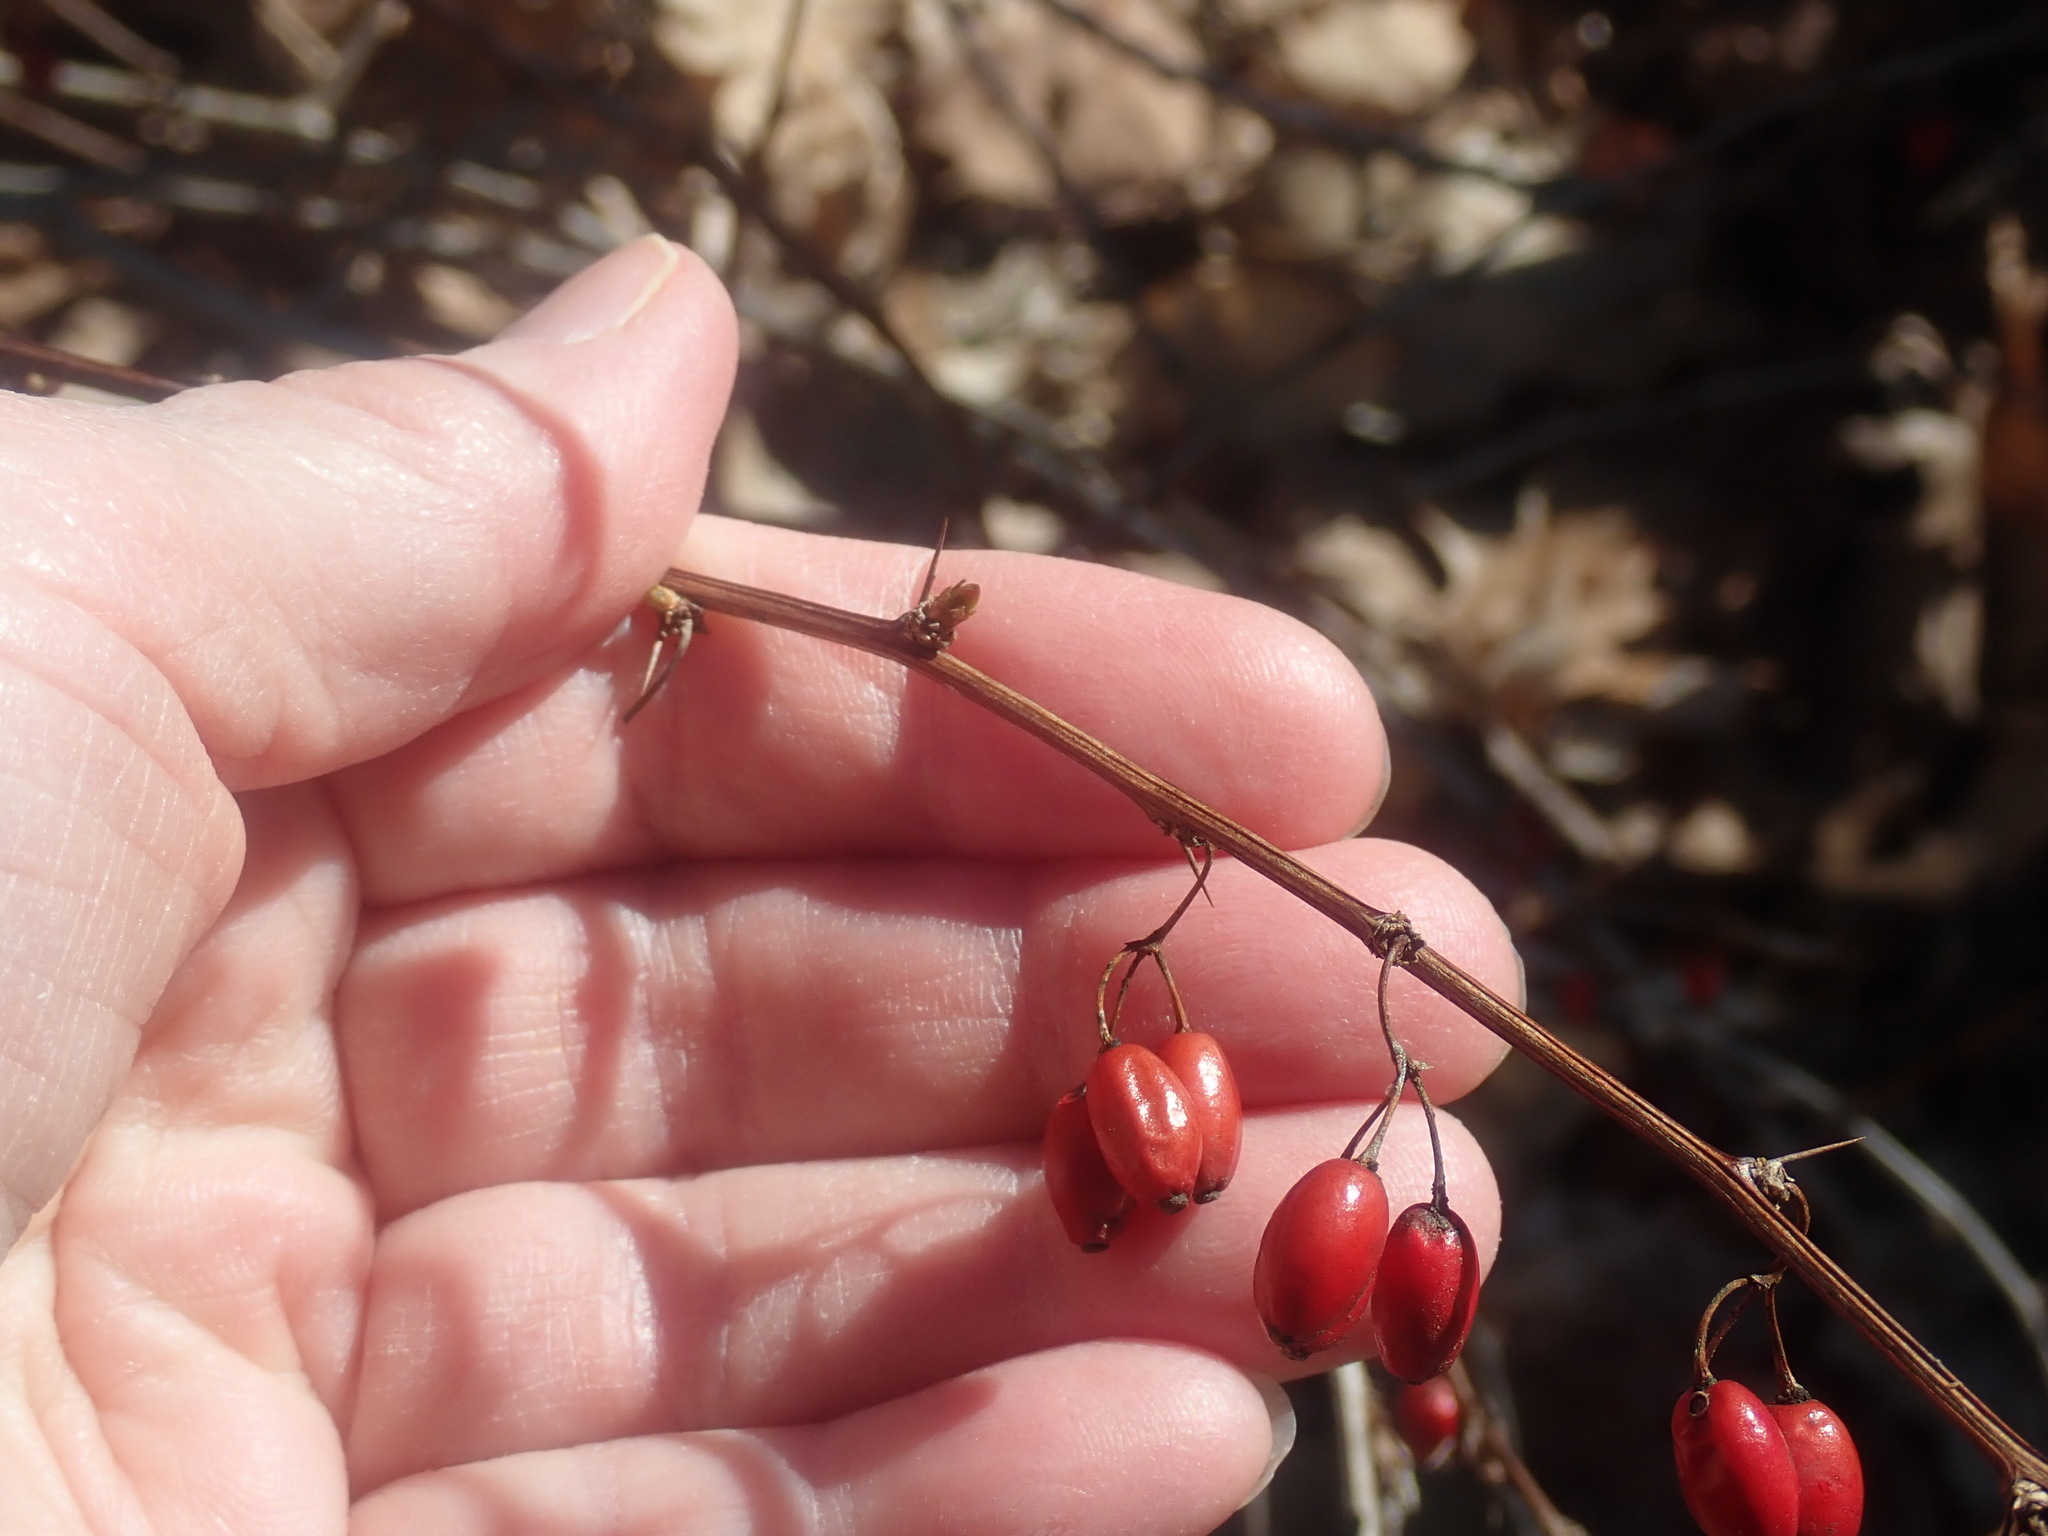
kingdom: Plantae
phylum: Tracheophyta
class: Magnoliopsida
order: Ranunculales
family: Berberidaceae
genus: Berberis
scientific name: Berberis thunbergii
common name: Japanese barberry
